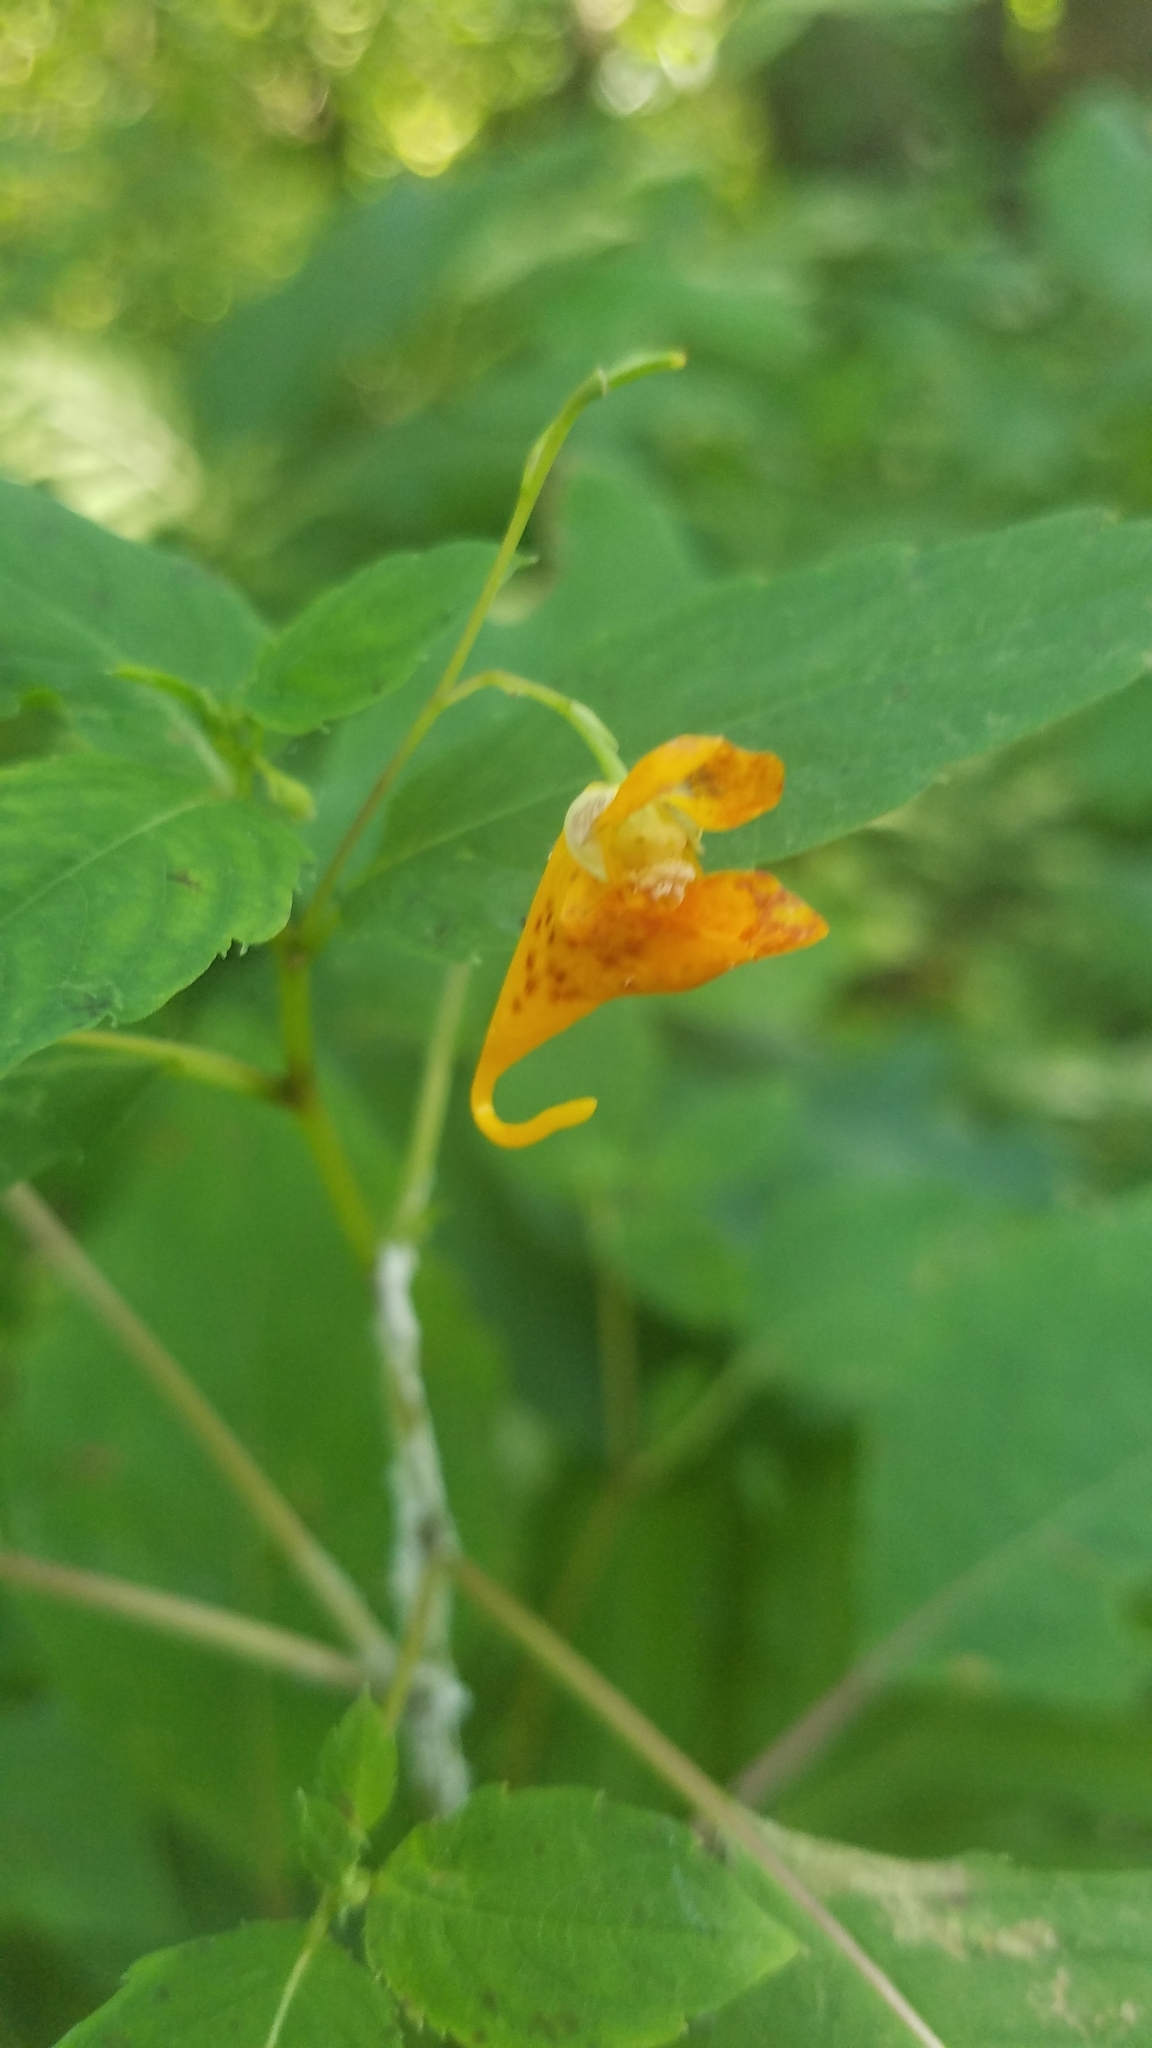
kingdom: Plantae
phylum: Tracheophyta
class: Magnoliopsida
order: Ericales
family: Balsaminaceae
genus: Impatiens
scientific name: Impatiens capensis
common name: Orange balsam
